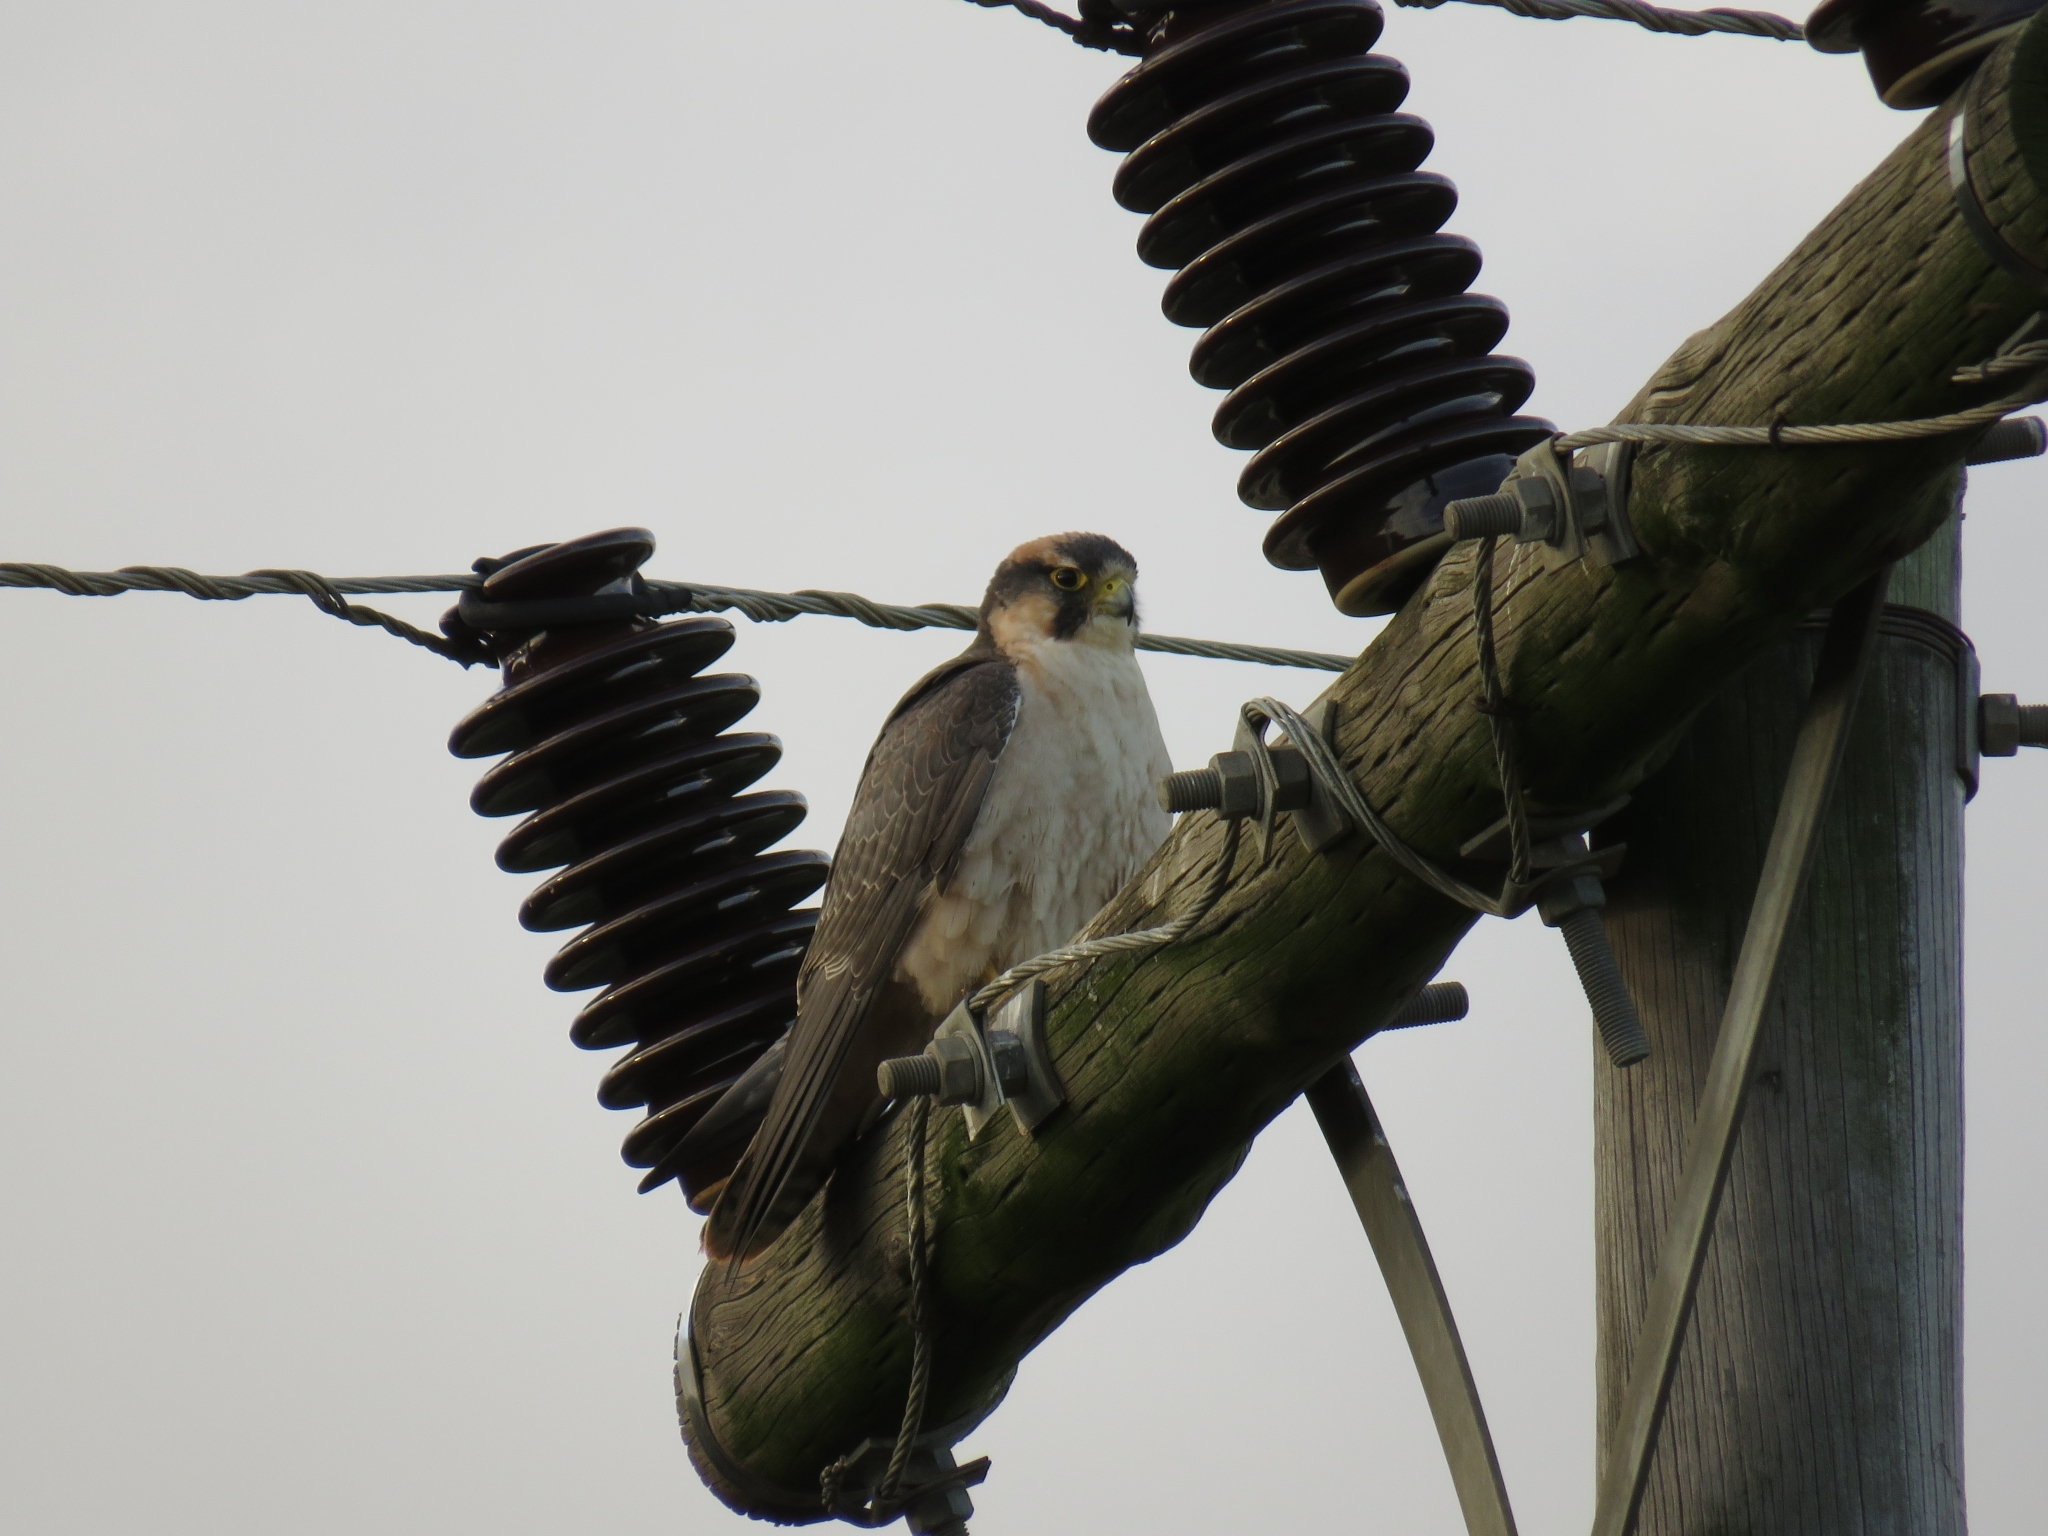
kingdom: Animalia
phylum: Chordata
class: Aves
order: Falconiformes
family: Falconidae
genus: Falco
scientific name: Falco biarmicus
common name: Lanner falcon
